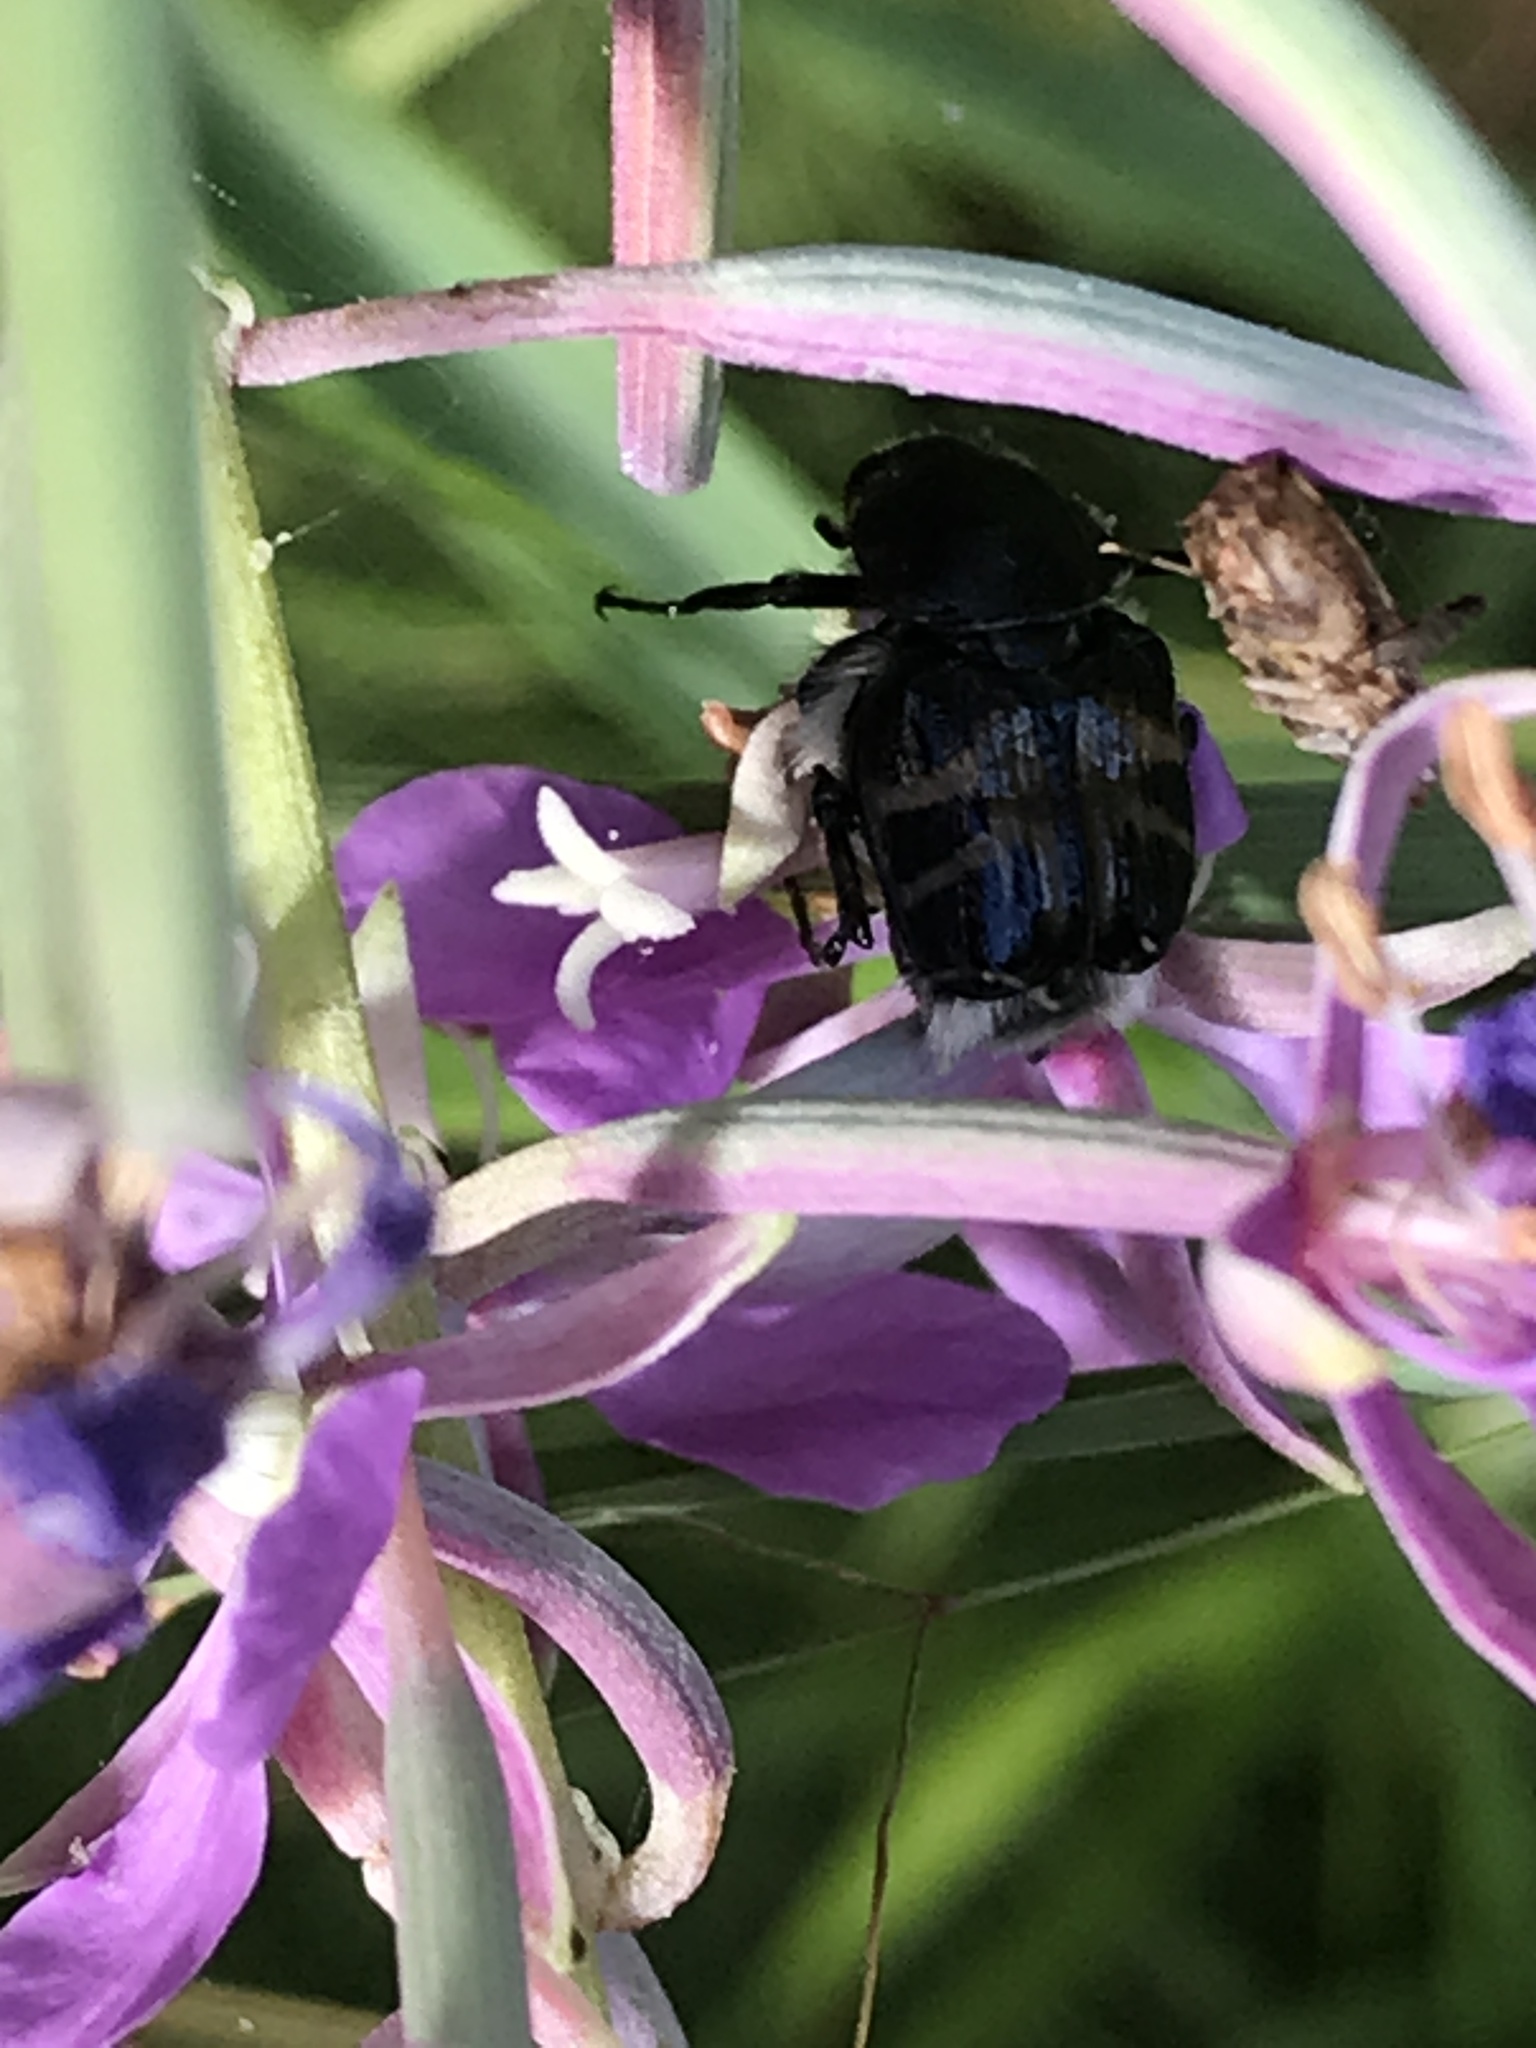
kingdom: Animalia
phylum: Arthropoda
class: Insecta
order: Coleoptera
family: Scarabaeidae
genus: Trichiotinus
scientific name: Trichiotinus assimilis
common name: Bee-mimic beetle
